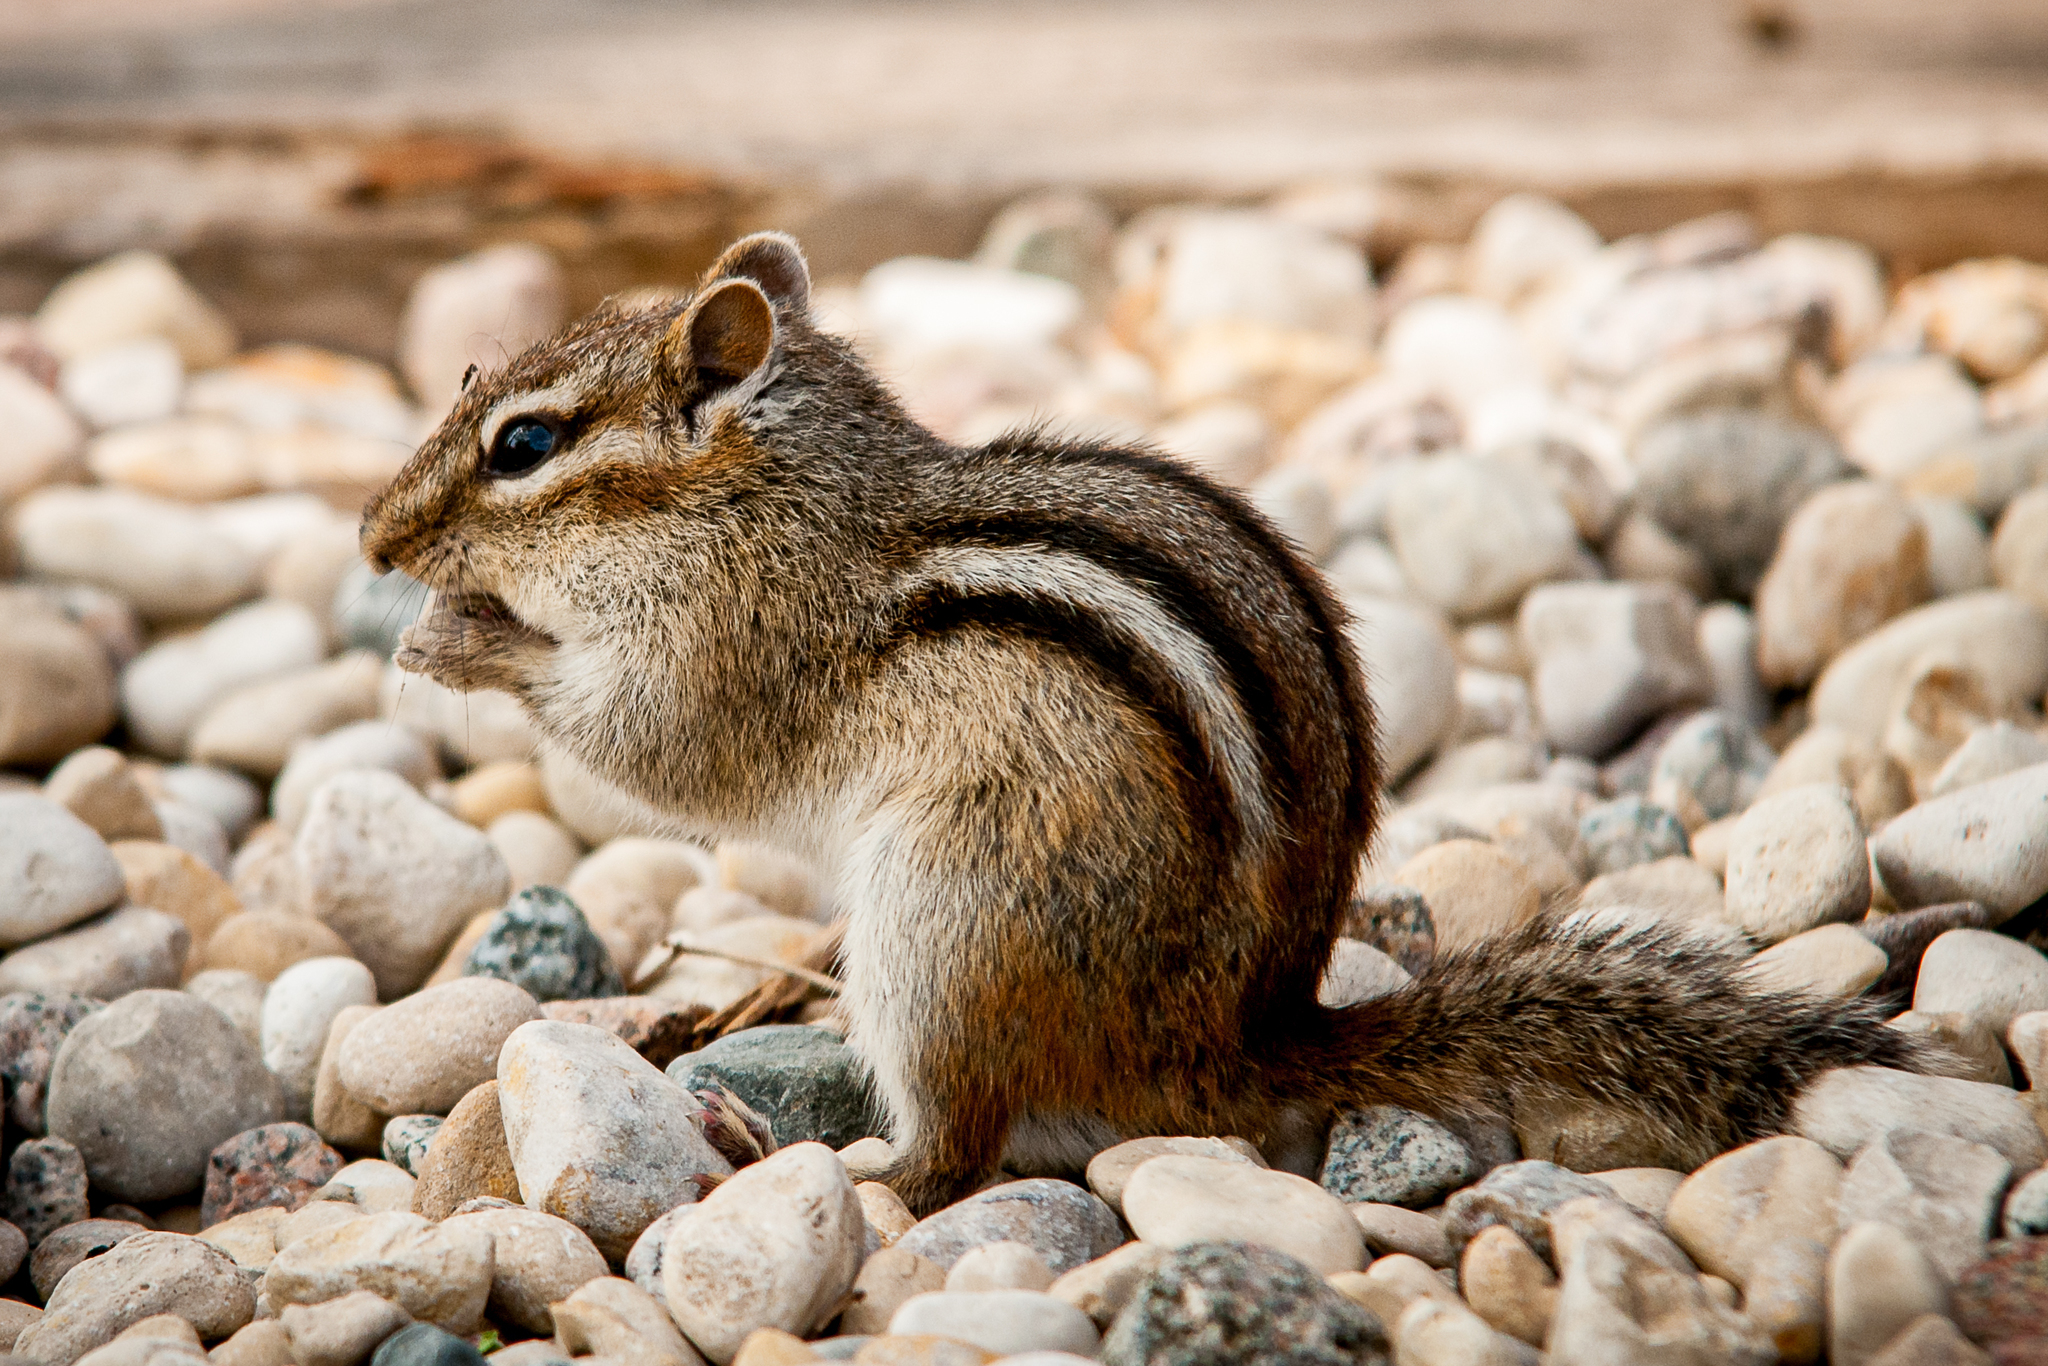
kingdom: Animalia
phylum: Chordata
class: Mammalia
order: Rodentia
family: Sciuridae
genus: Tamias
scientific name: Tamias striatus
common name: Eastern chipmunk
